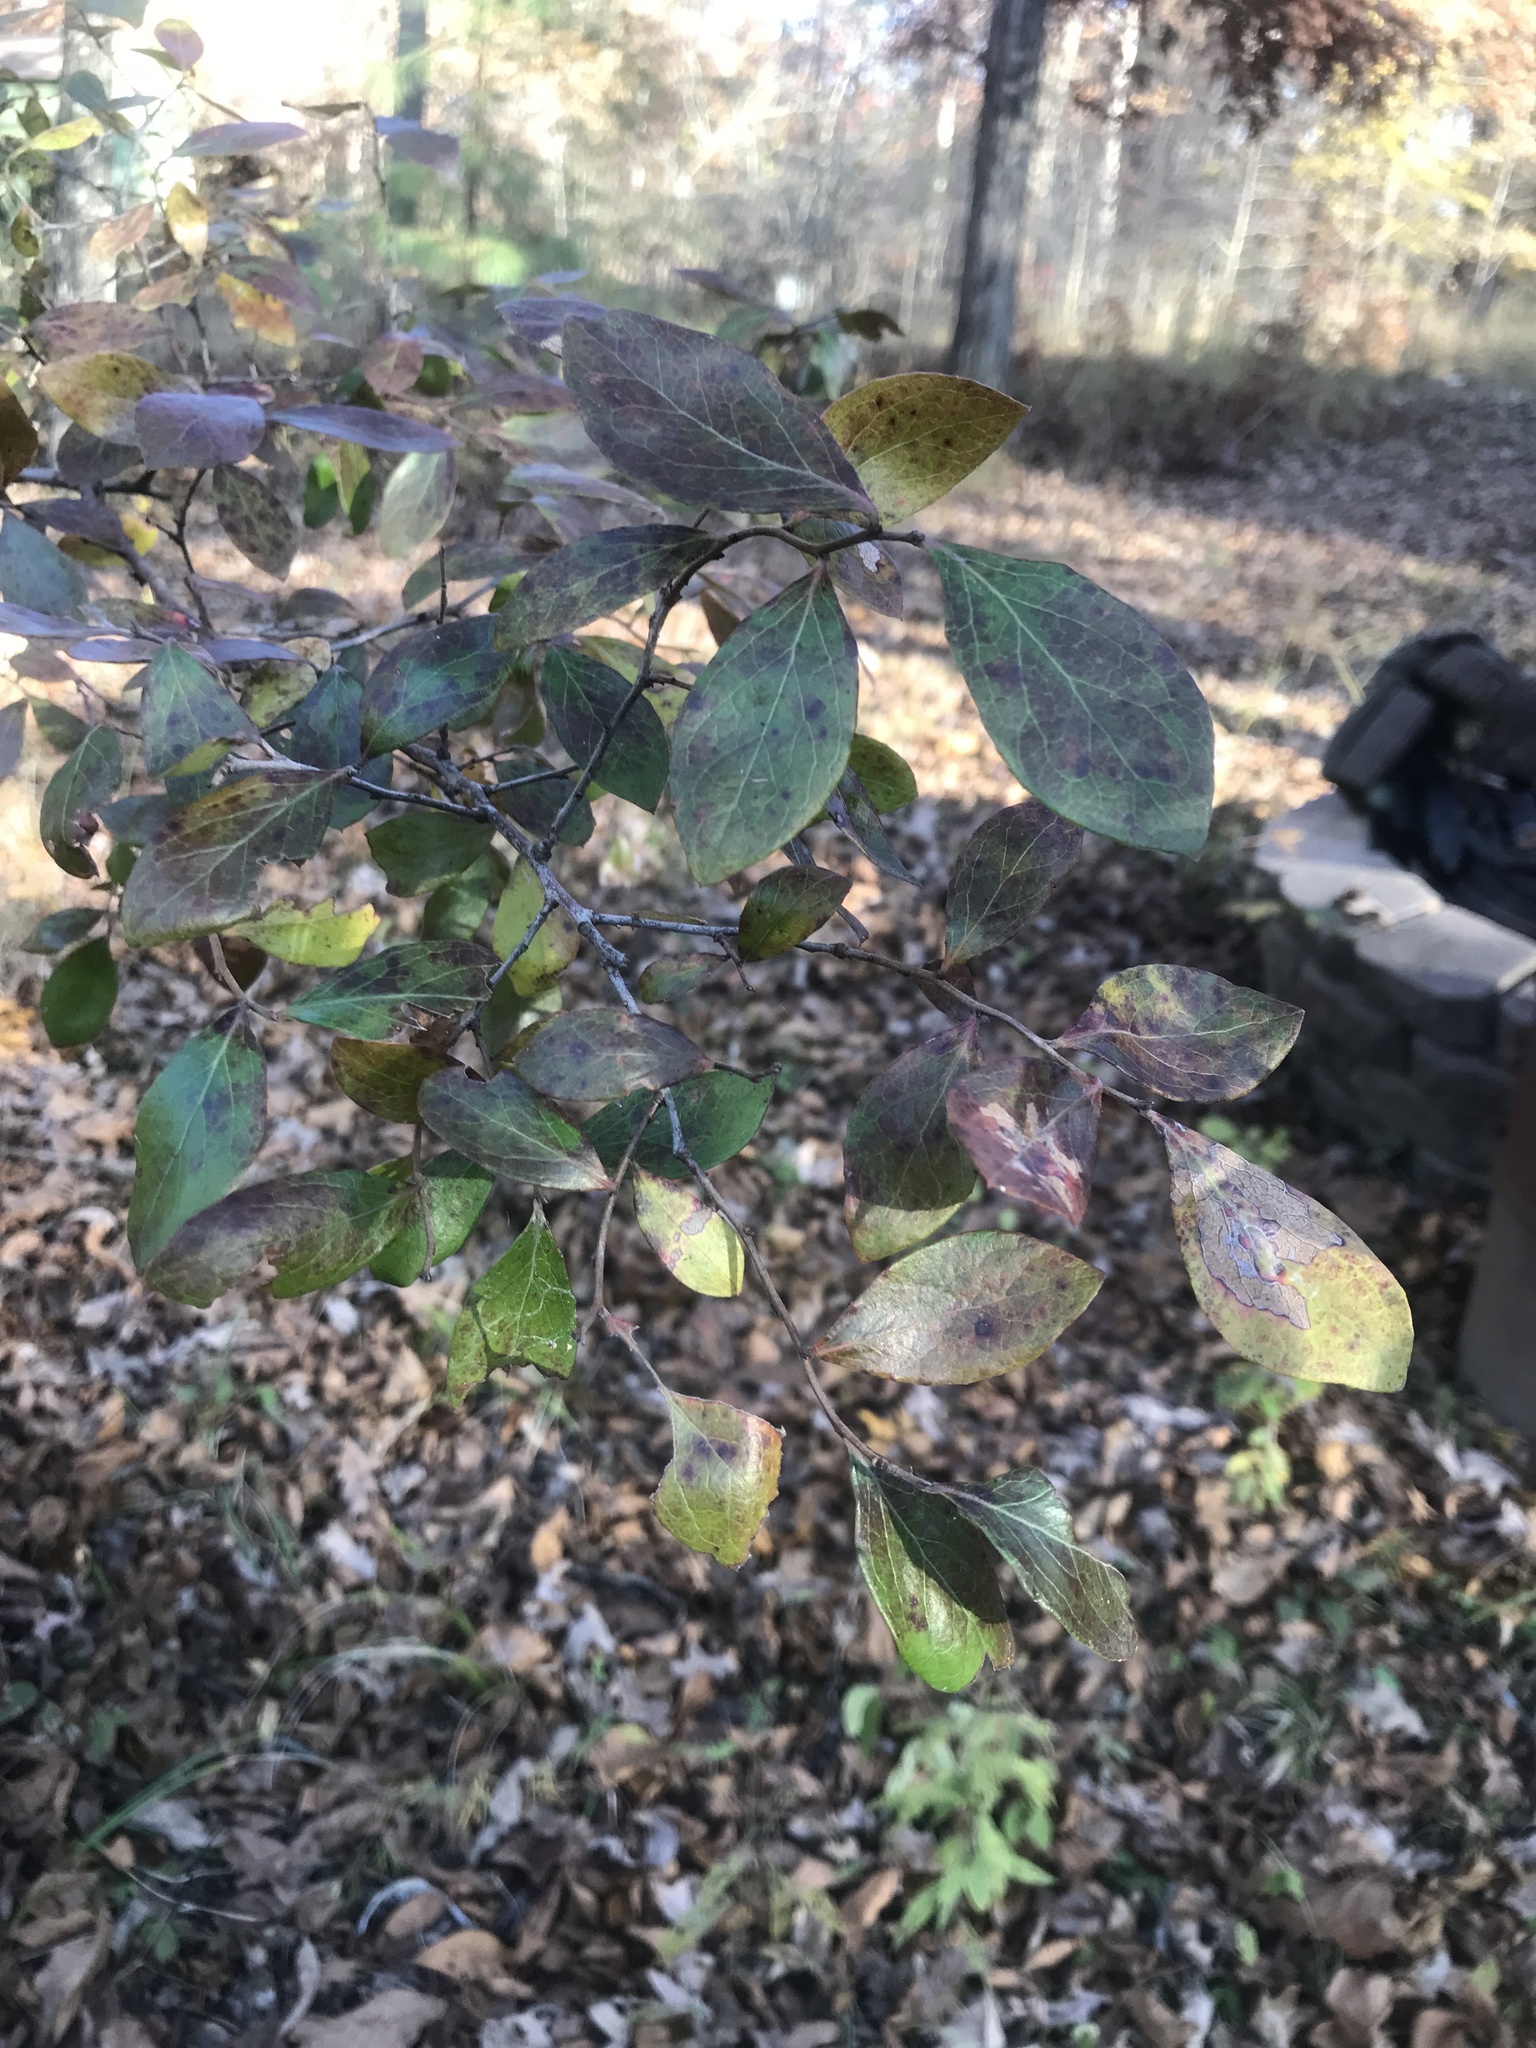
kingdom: Plantae
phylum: Tracheophyta
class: Magnoliopsida
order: Ericales
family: Ericaceae
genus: Vaccinium
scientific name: Vaccinium arboreum
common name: Farkleberry
